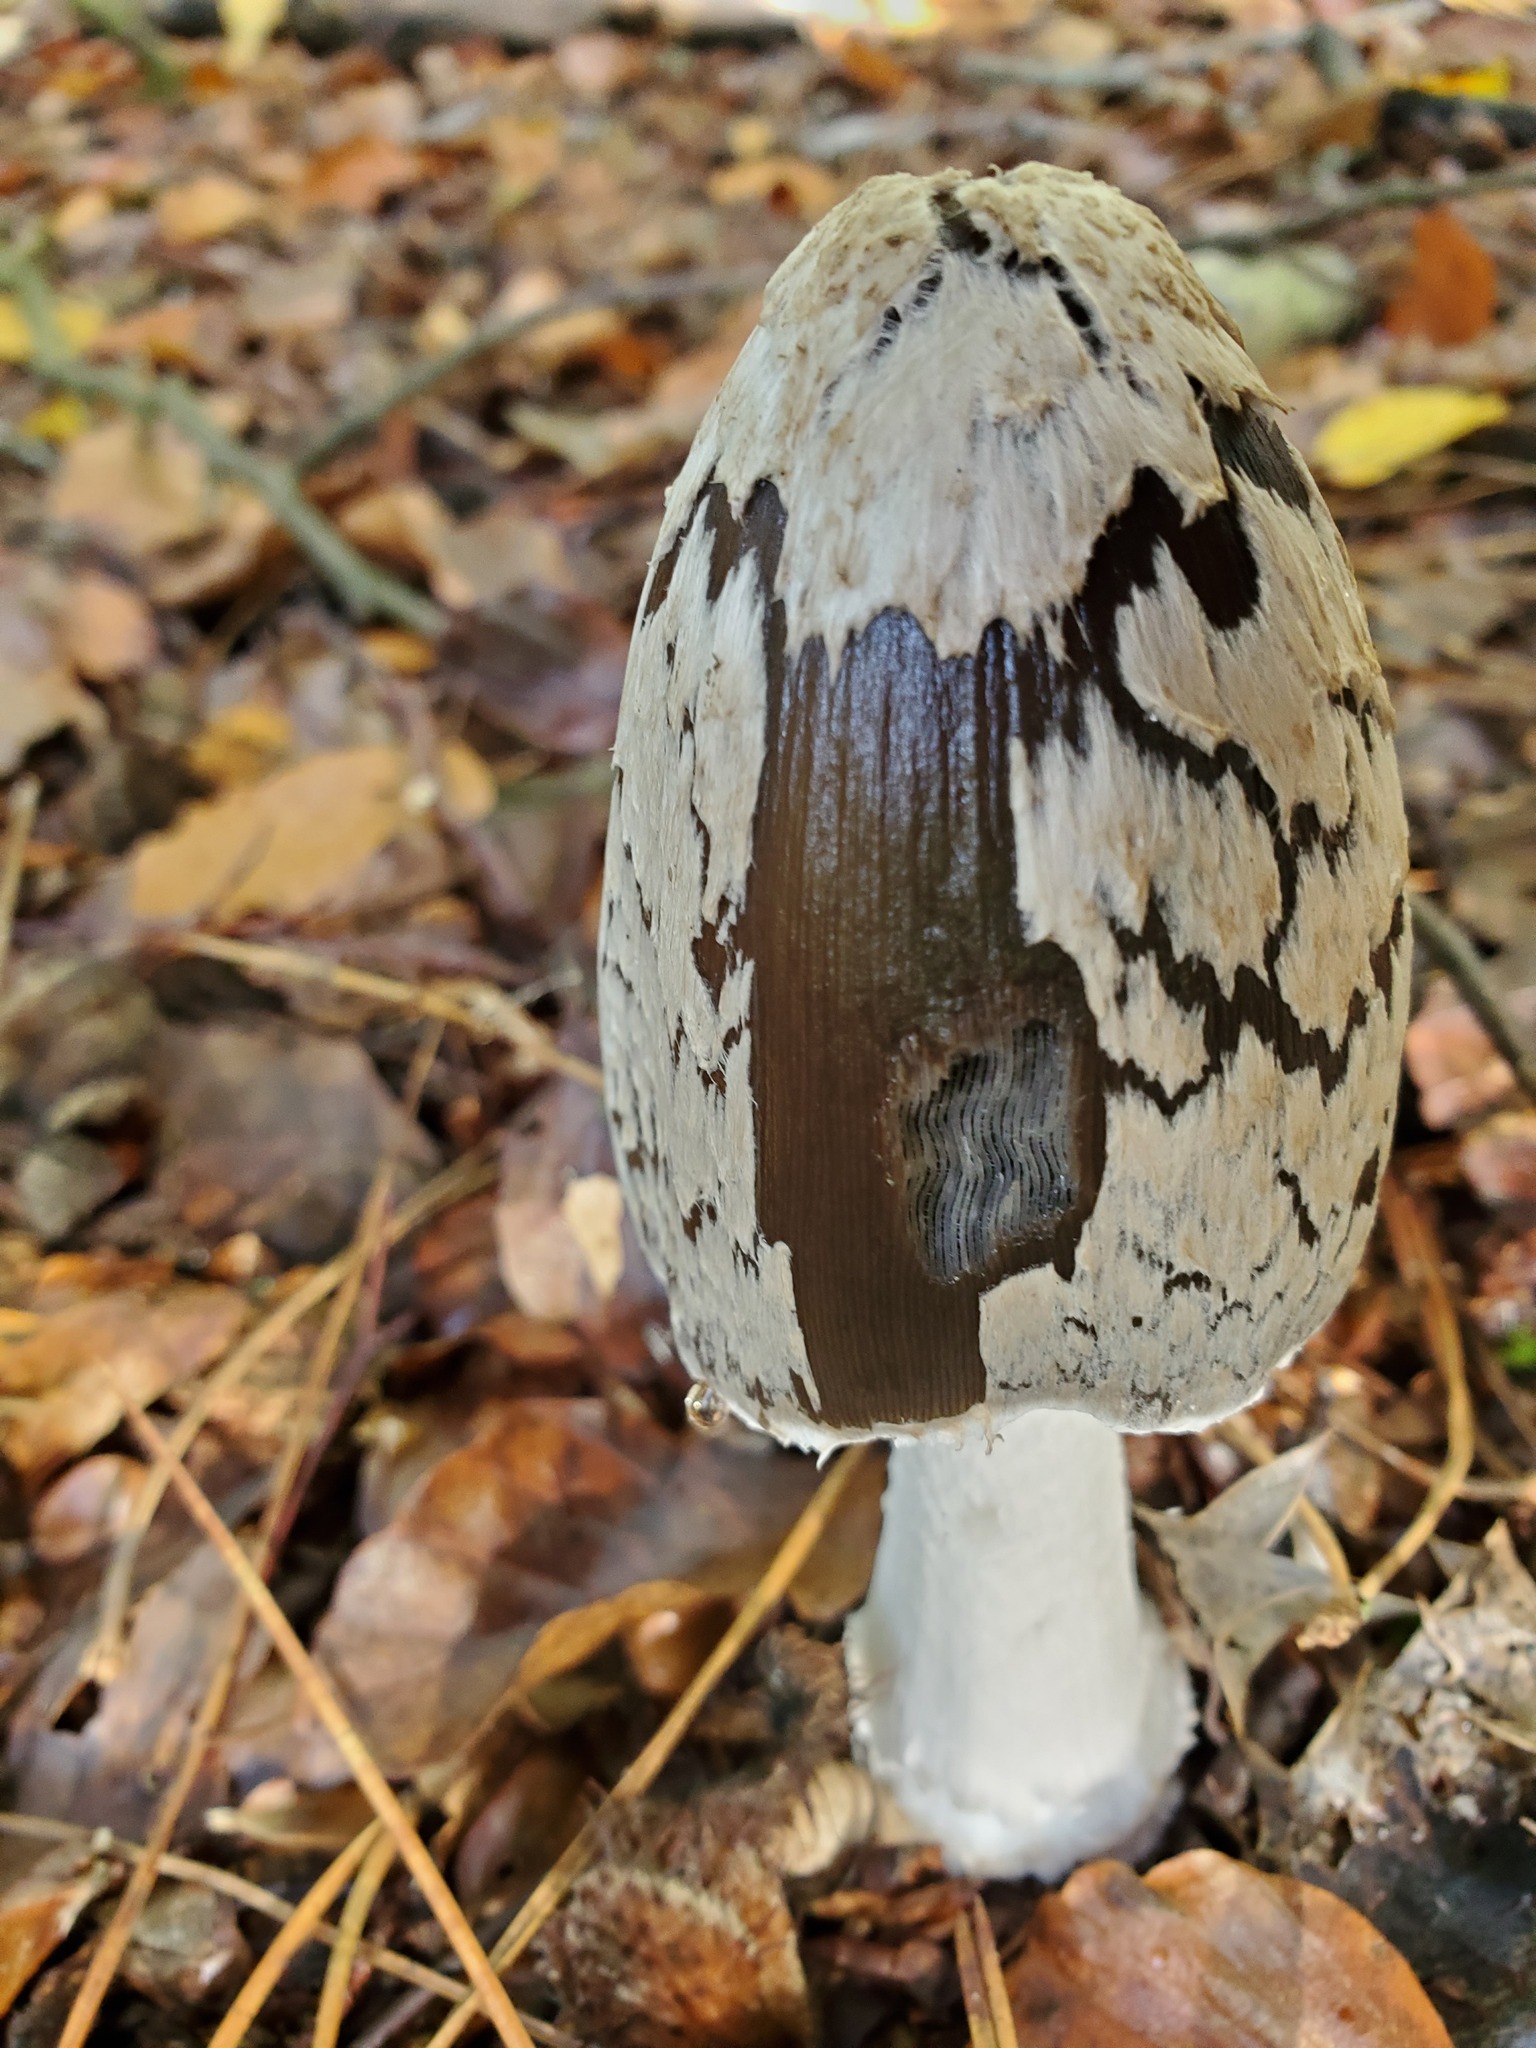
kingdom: Fungi
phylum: Basidiomycota
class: Agaricomycetes
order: Agaricales
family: Psathyrellaceae
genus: Coprinopsis
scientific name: Coprinopsis picacea
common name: Magpie inkcap
